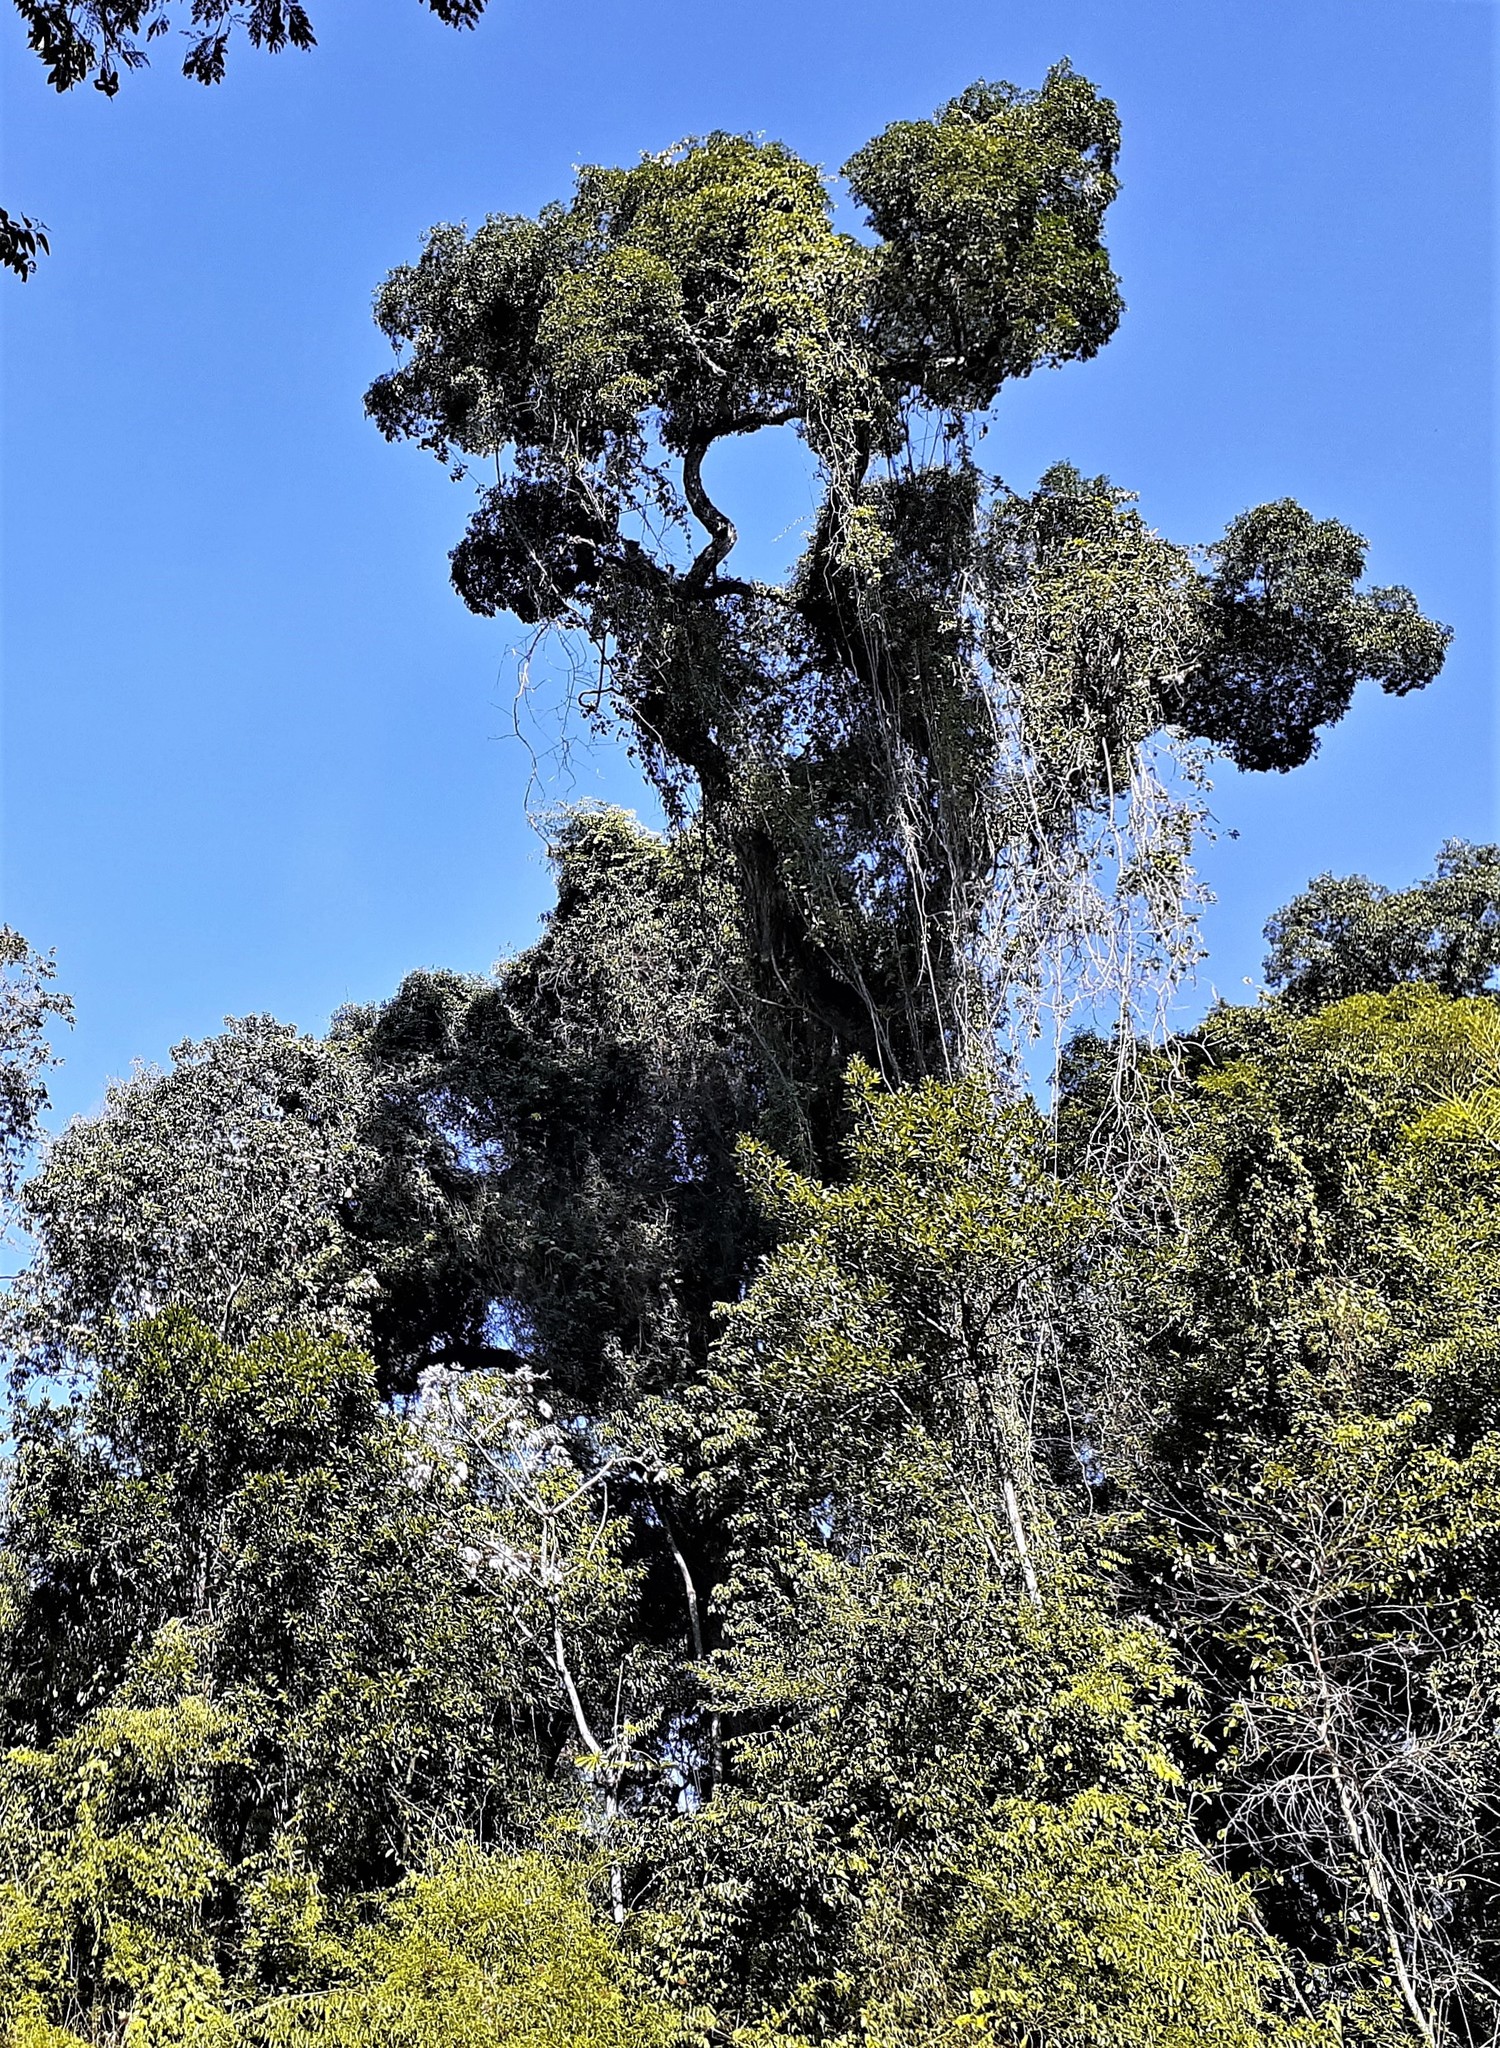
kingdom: Plantae
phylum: Tracheophyta
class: Magnoliopsida
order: Gentianales
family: Apocynaceae
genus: Aspidosperma
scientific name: Aspidosperma polyneuron
